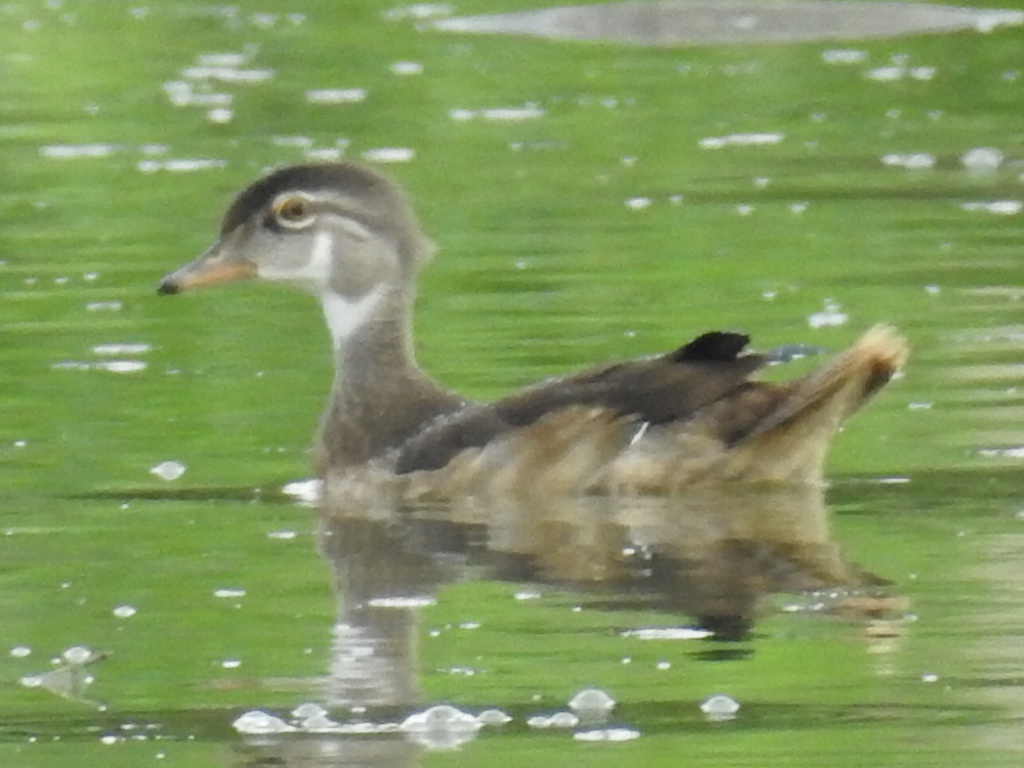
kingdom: Animalia
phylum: Chordata
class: Aves
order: Anseriformes
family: Anatidae
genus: Aix
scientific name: Aix sponsa
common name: Wood duck
